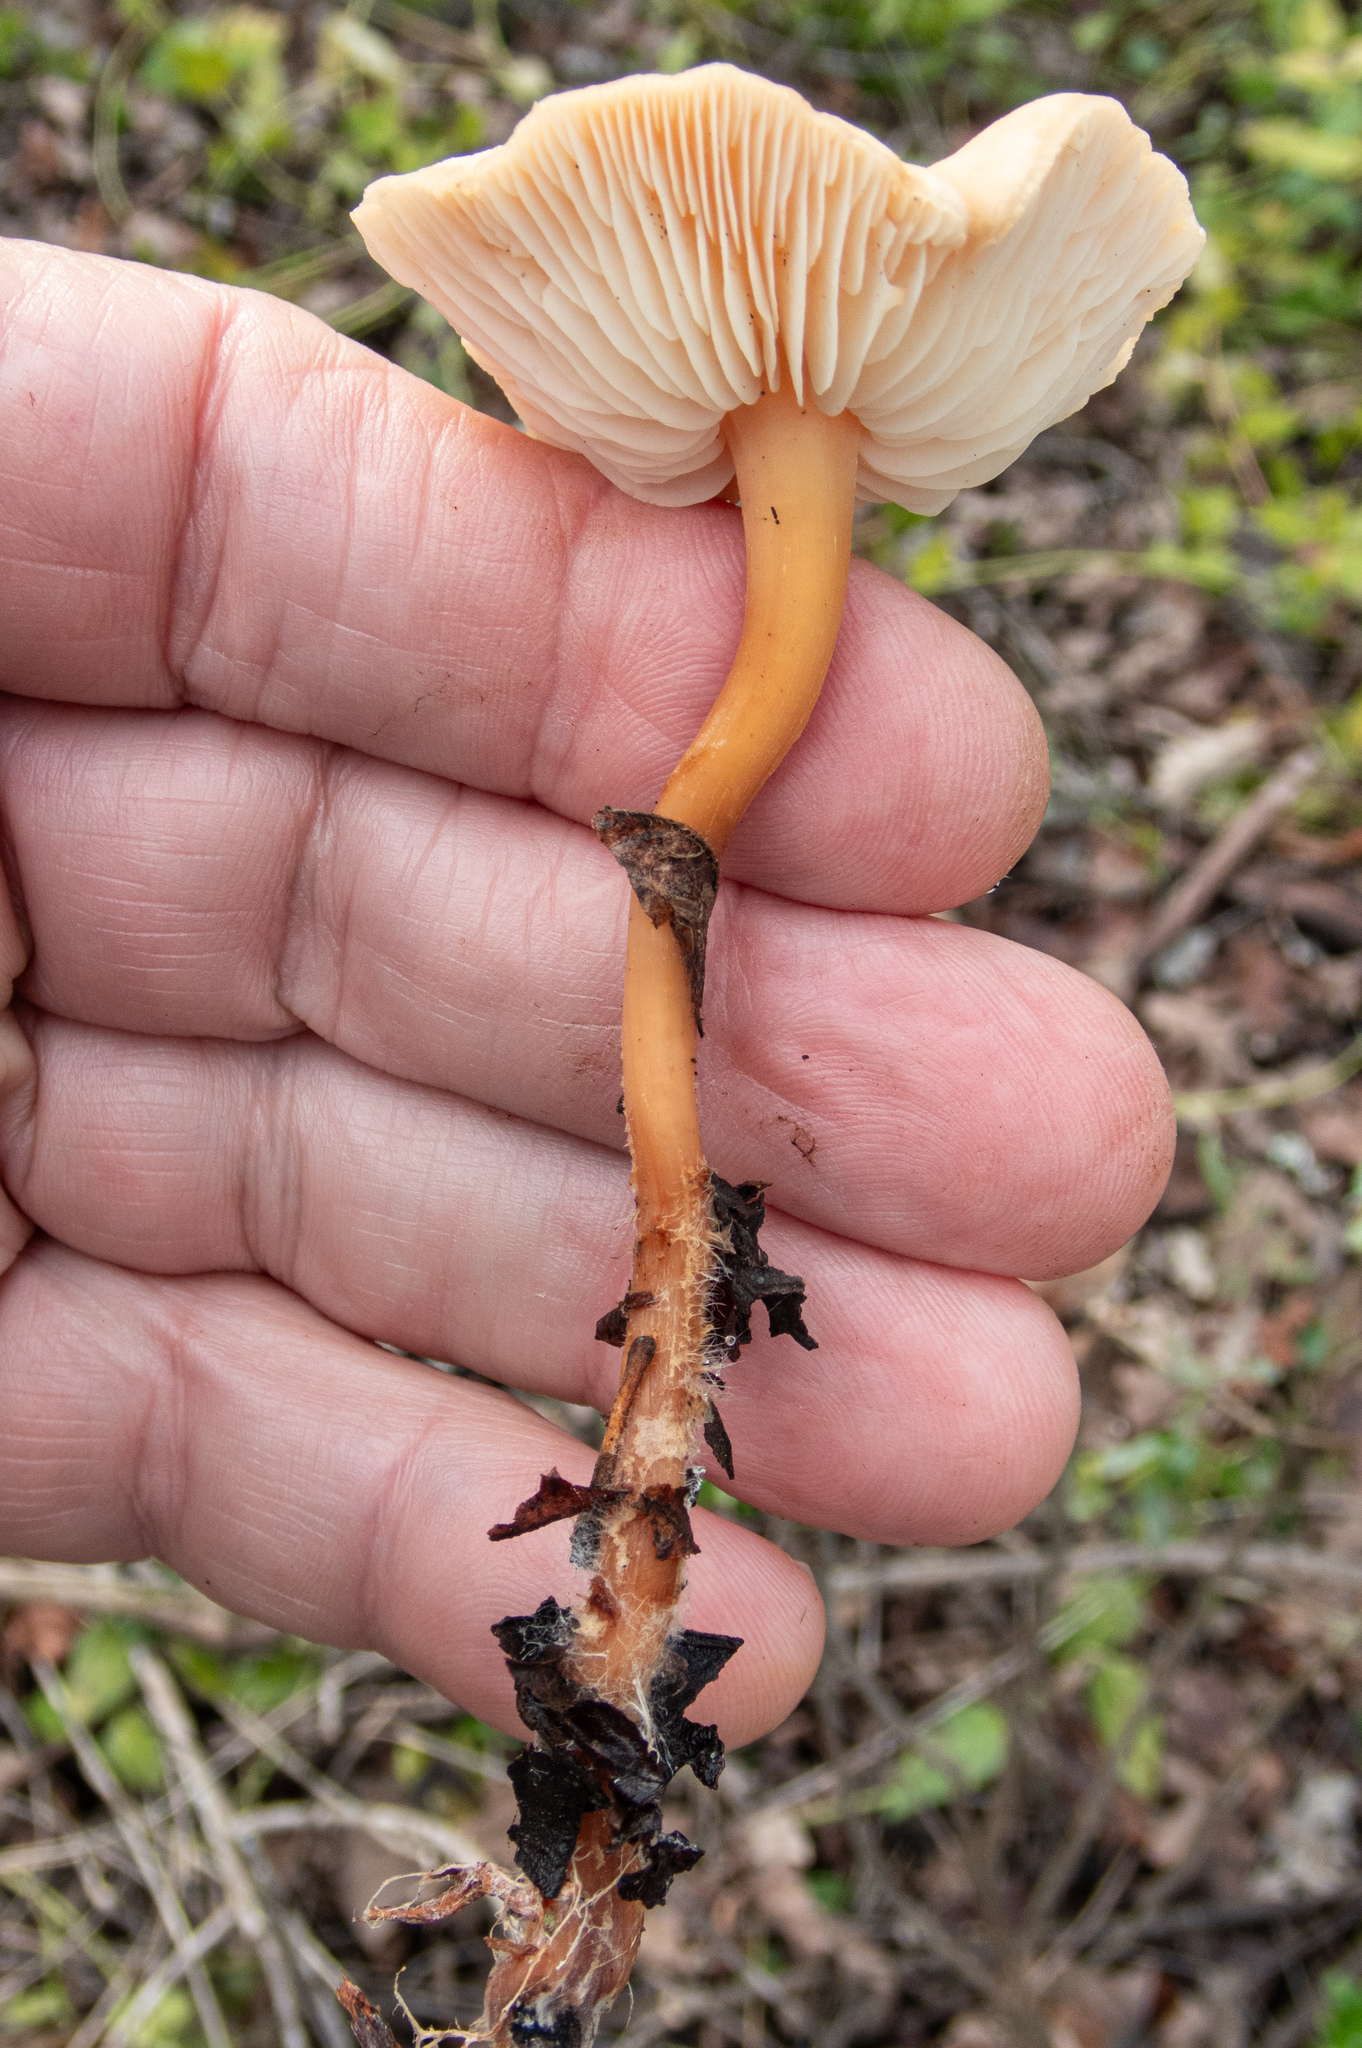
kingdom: Fungi
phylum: Basidiomycota
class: Agaricomycetes
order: Agaricales
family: Omphalotaceae
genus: Gymnopus
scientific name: Gymnopus dryophilus
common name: Penny top
